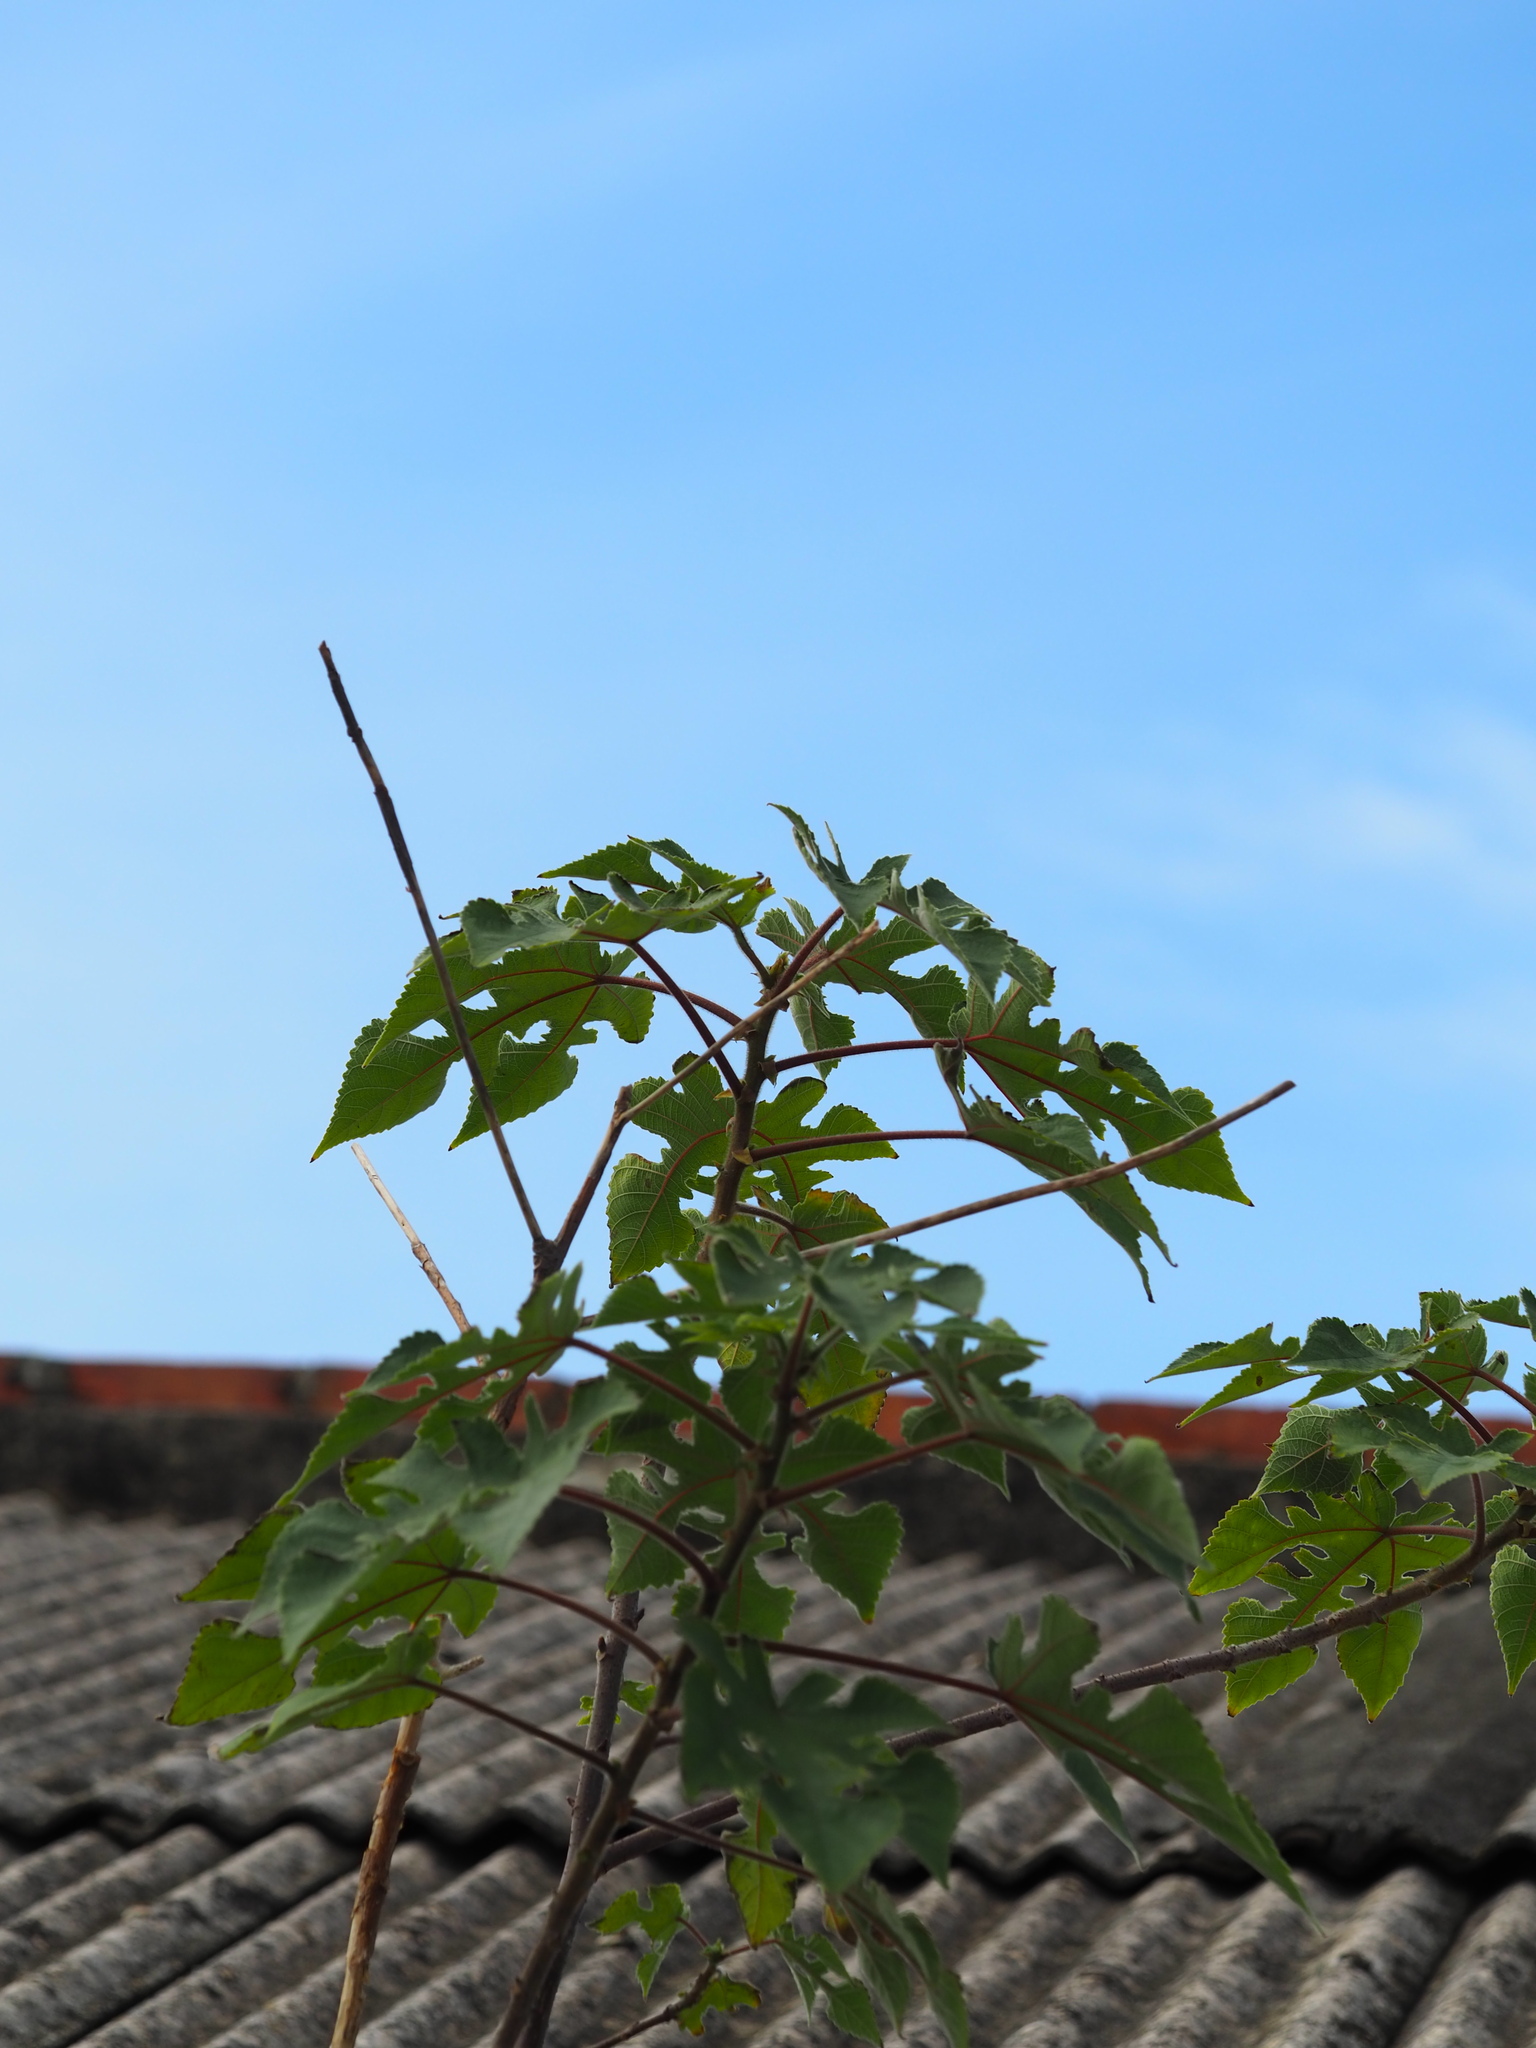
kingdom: Plantae
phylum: Tracheophyta
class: Magnoliopsida
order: Rosales
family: Moraceae
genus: Broussonetia
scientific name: Broussonetia papyrifera
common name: Paper mulberry
